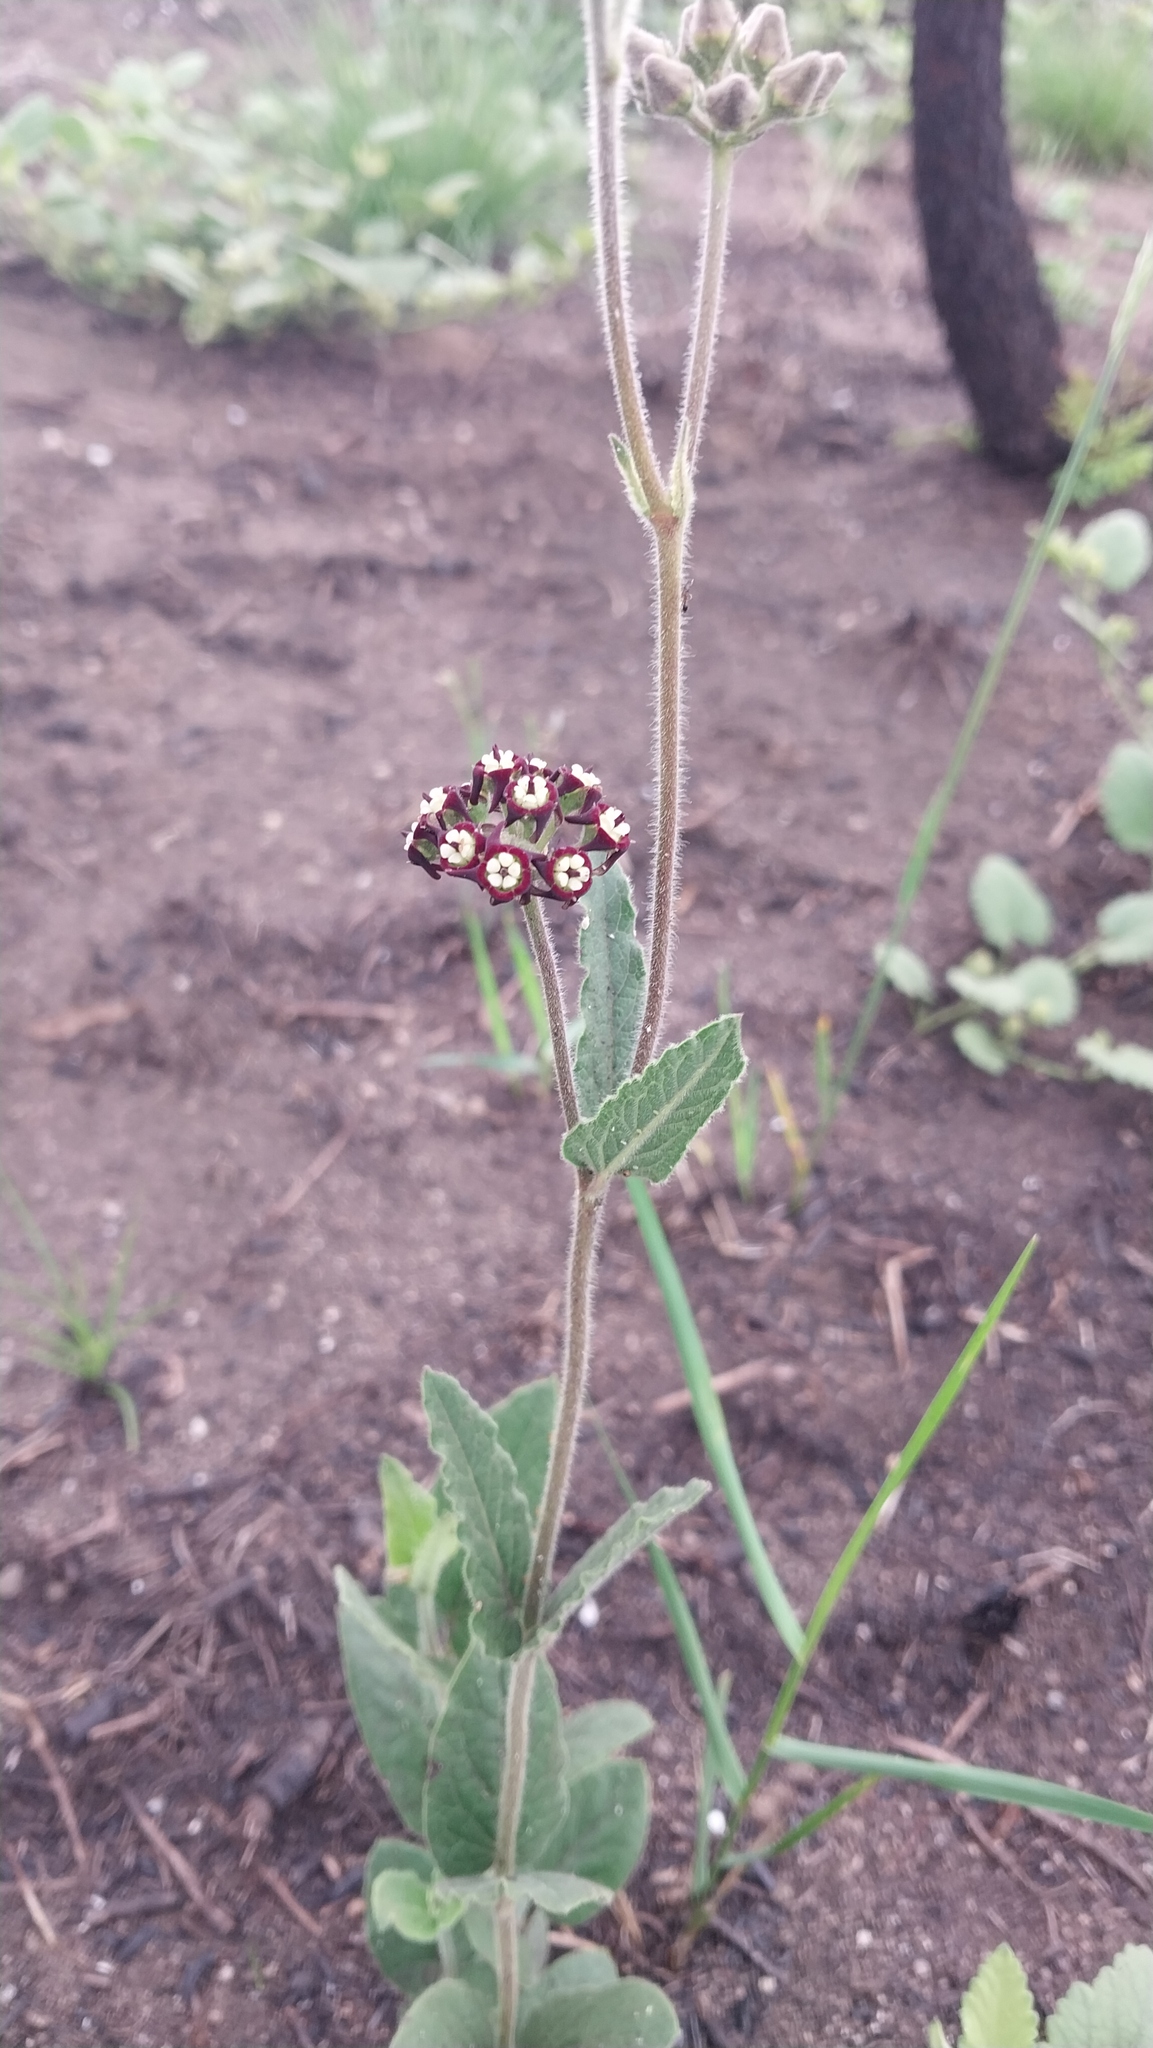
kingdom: Plantae
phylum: Tracheophyta
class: Magnoliopsida
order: Gentianales
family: Apocynaceae
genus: Oxypetalum
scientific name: Oxypetalum arnottianum
